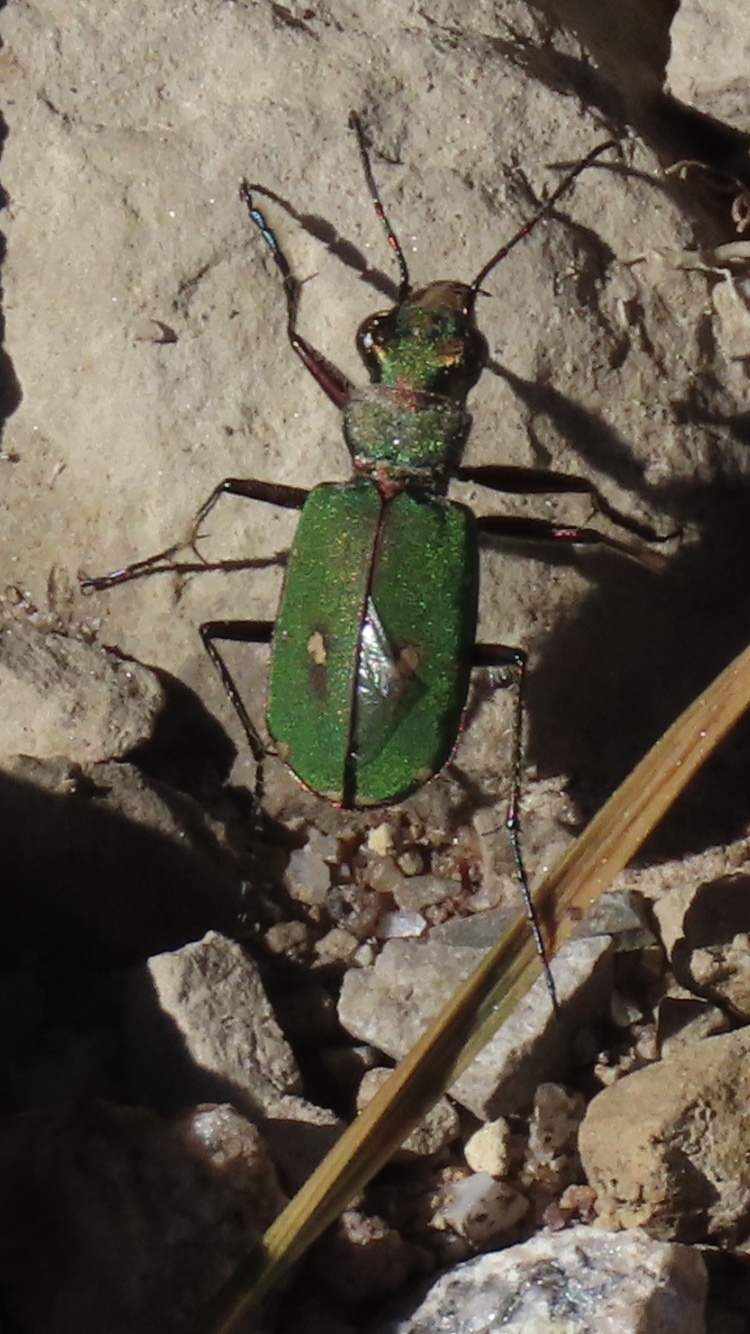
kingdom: Animalia
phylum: Arthropoda
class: Insecta
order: Coleoptera
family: Carabidae
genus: Cicindela
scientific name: Cicindela campestris
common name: Common tiger beetle
